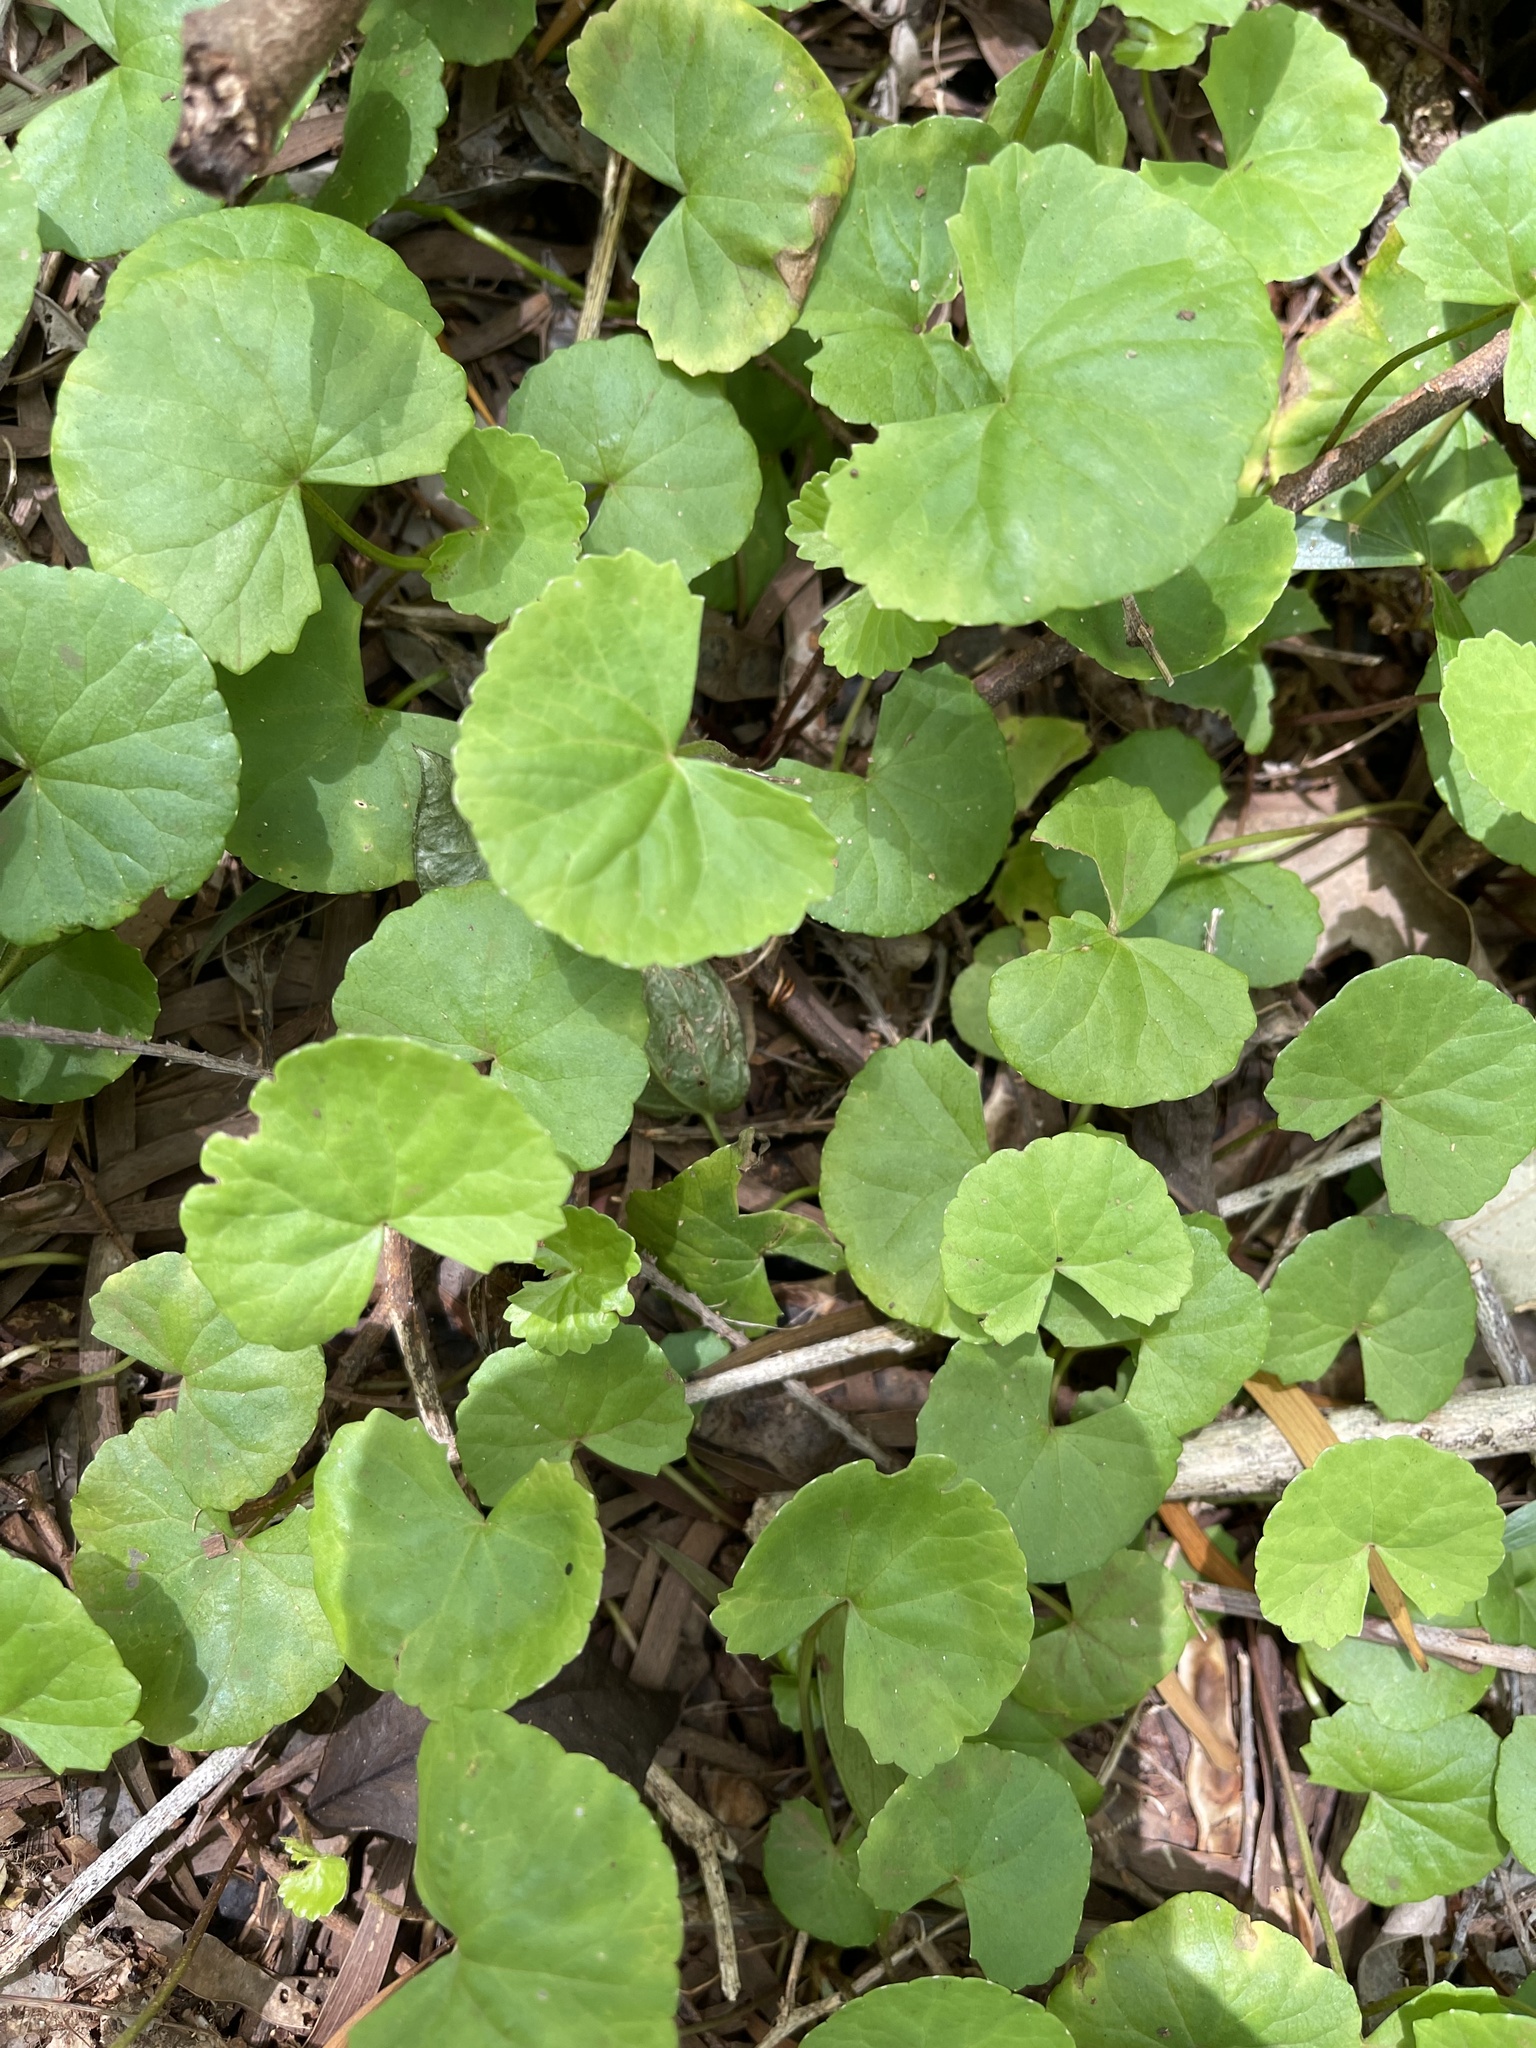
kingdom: Plantae
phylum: Tracheophyta
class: Magnoliopsida
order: Apiales
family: Apiaceae
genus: Centella
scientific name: Centella asiatica
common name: Spadeleaf
